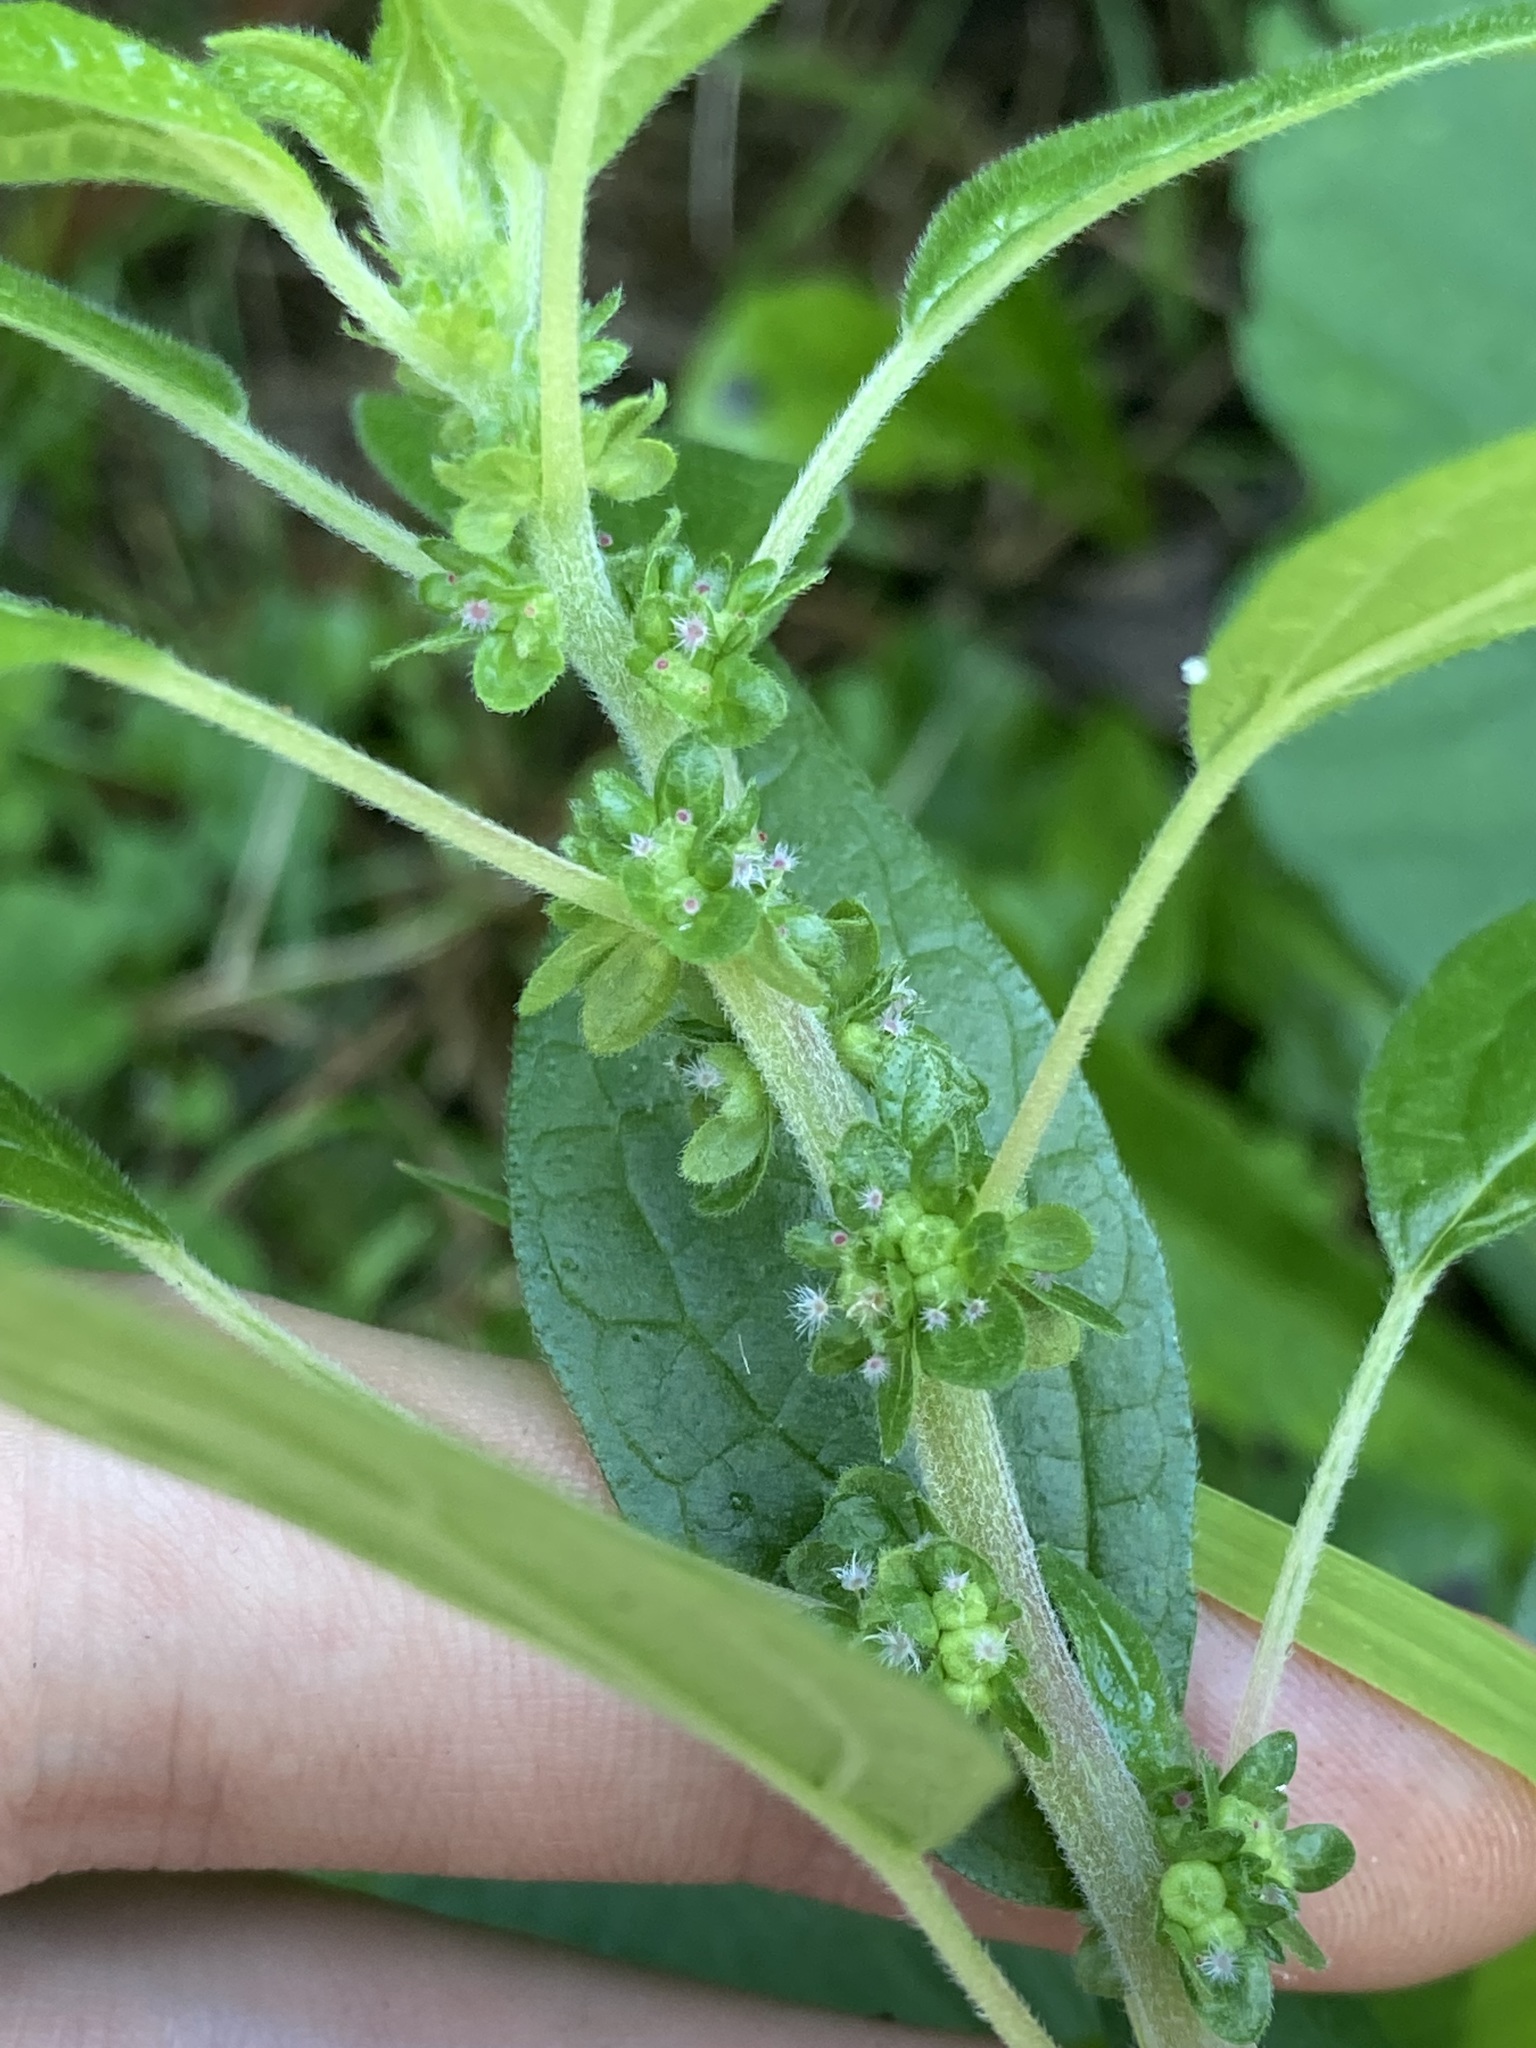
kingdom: Plantae
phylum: Tracheophyta
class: Magnoliopsida
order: Rosales
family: Urticaceae
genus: Parietaria
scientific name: Parietaria judaica
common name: Pellitory-of-the-wall
